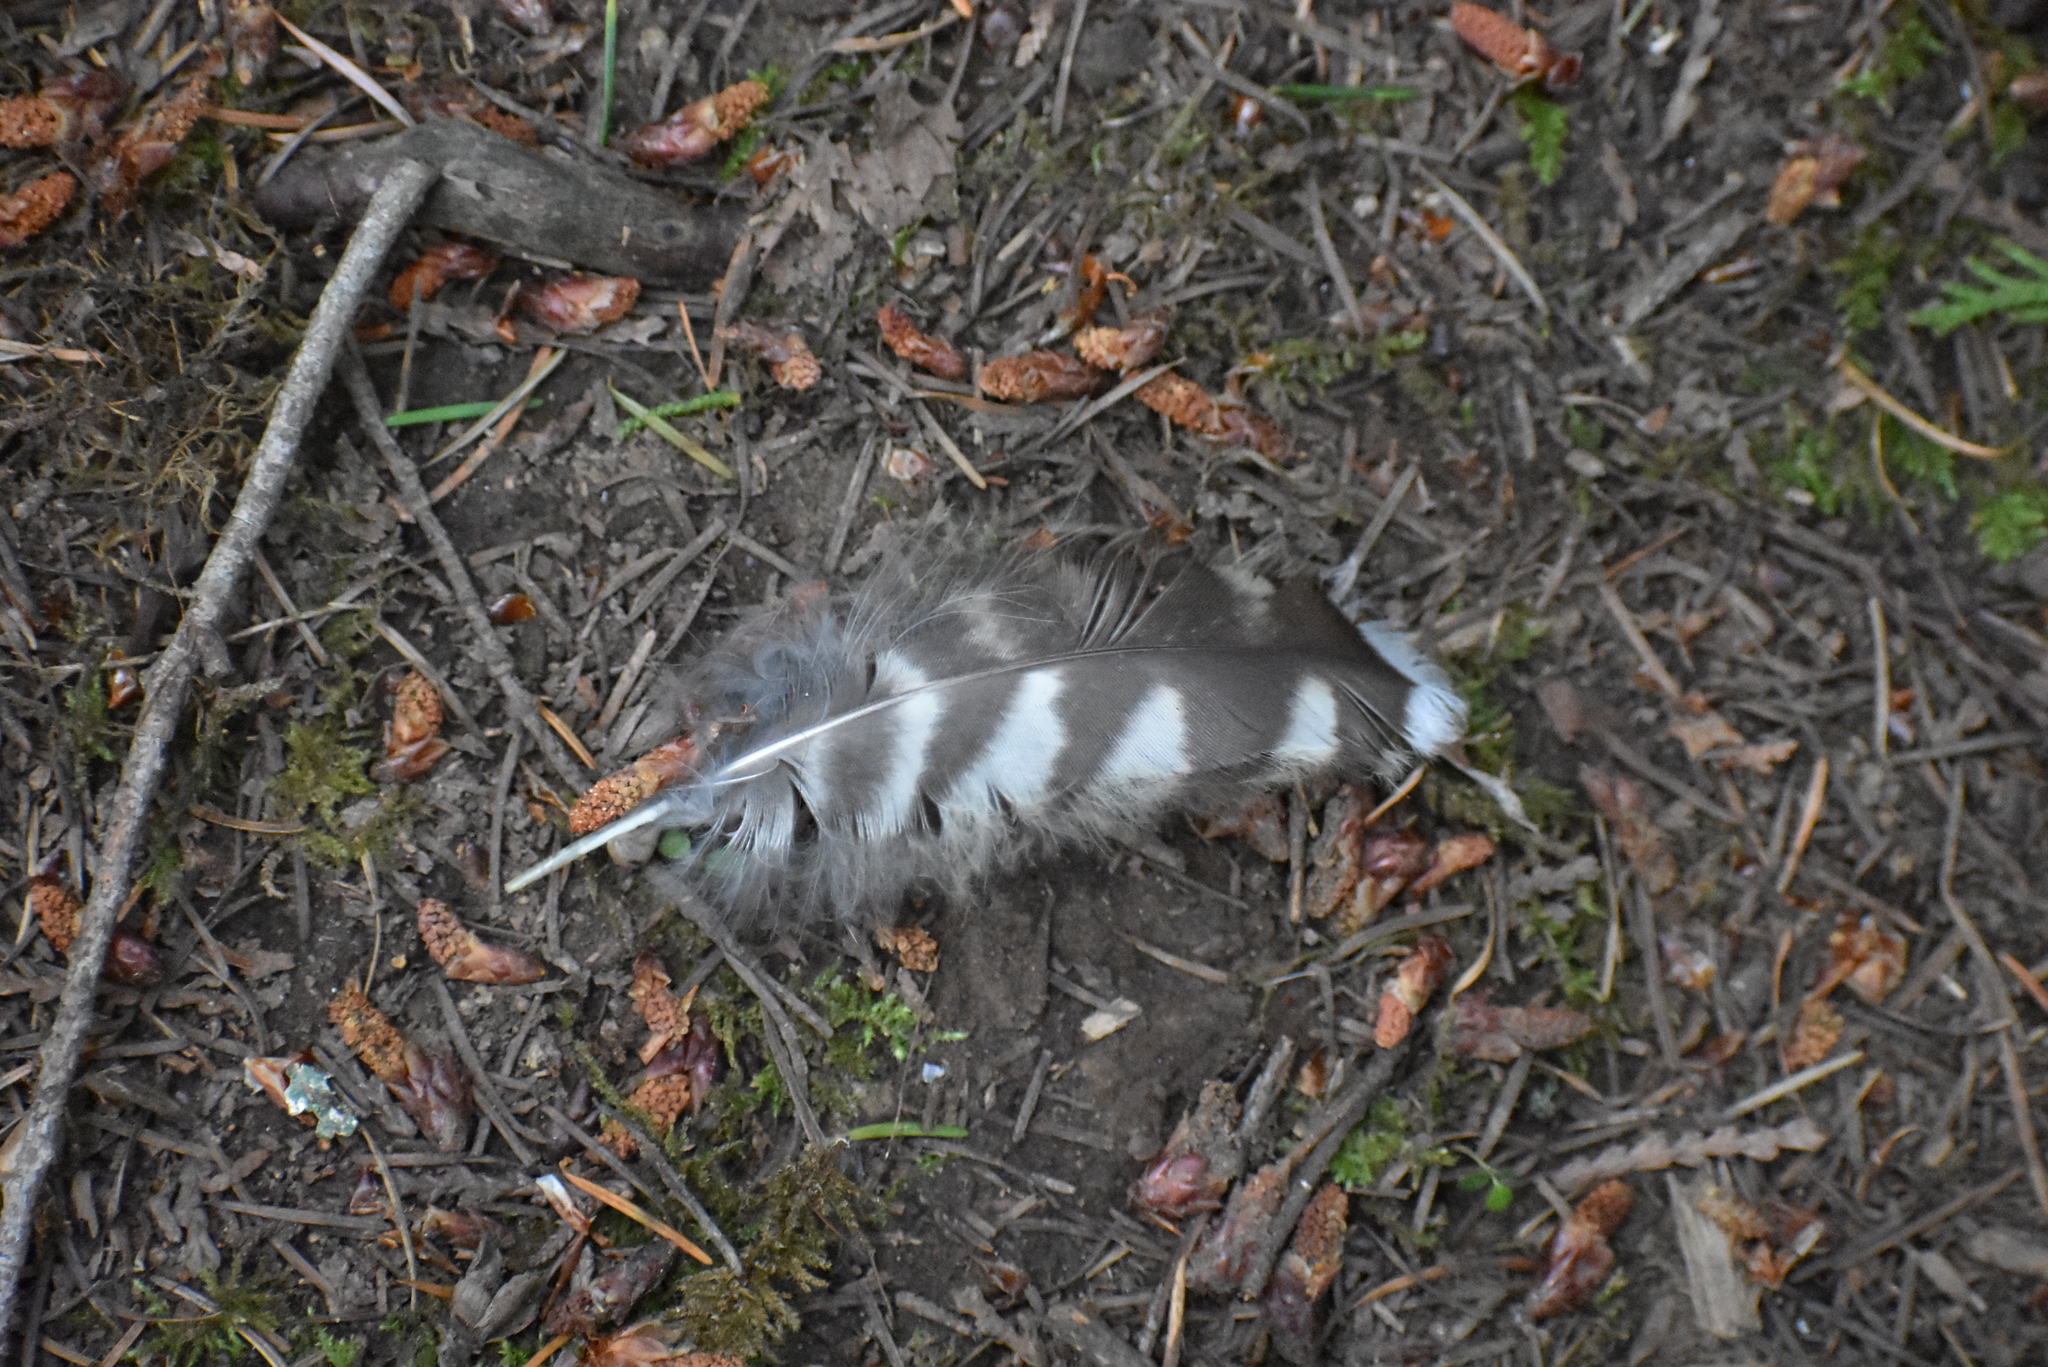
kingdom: Animalia
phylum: Chordata
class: Aves
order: Strigiformes
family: Strigidae
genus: Strix
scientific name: Strix varia
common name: Barred owl
